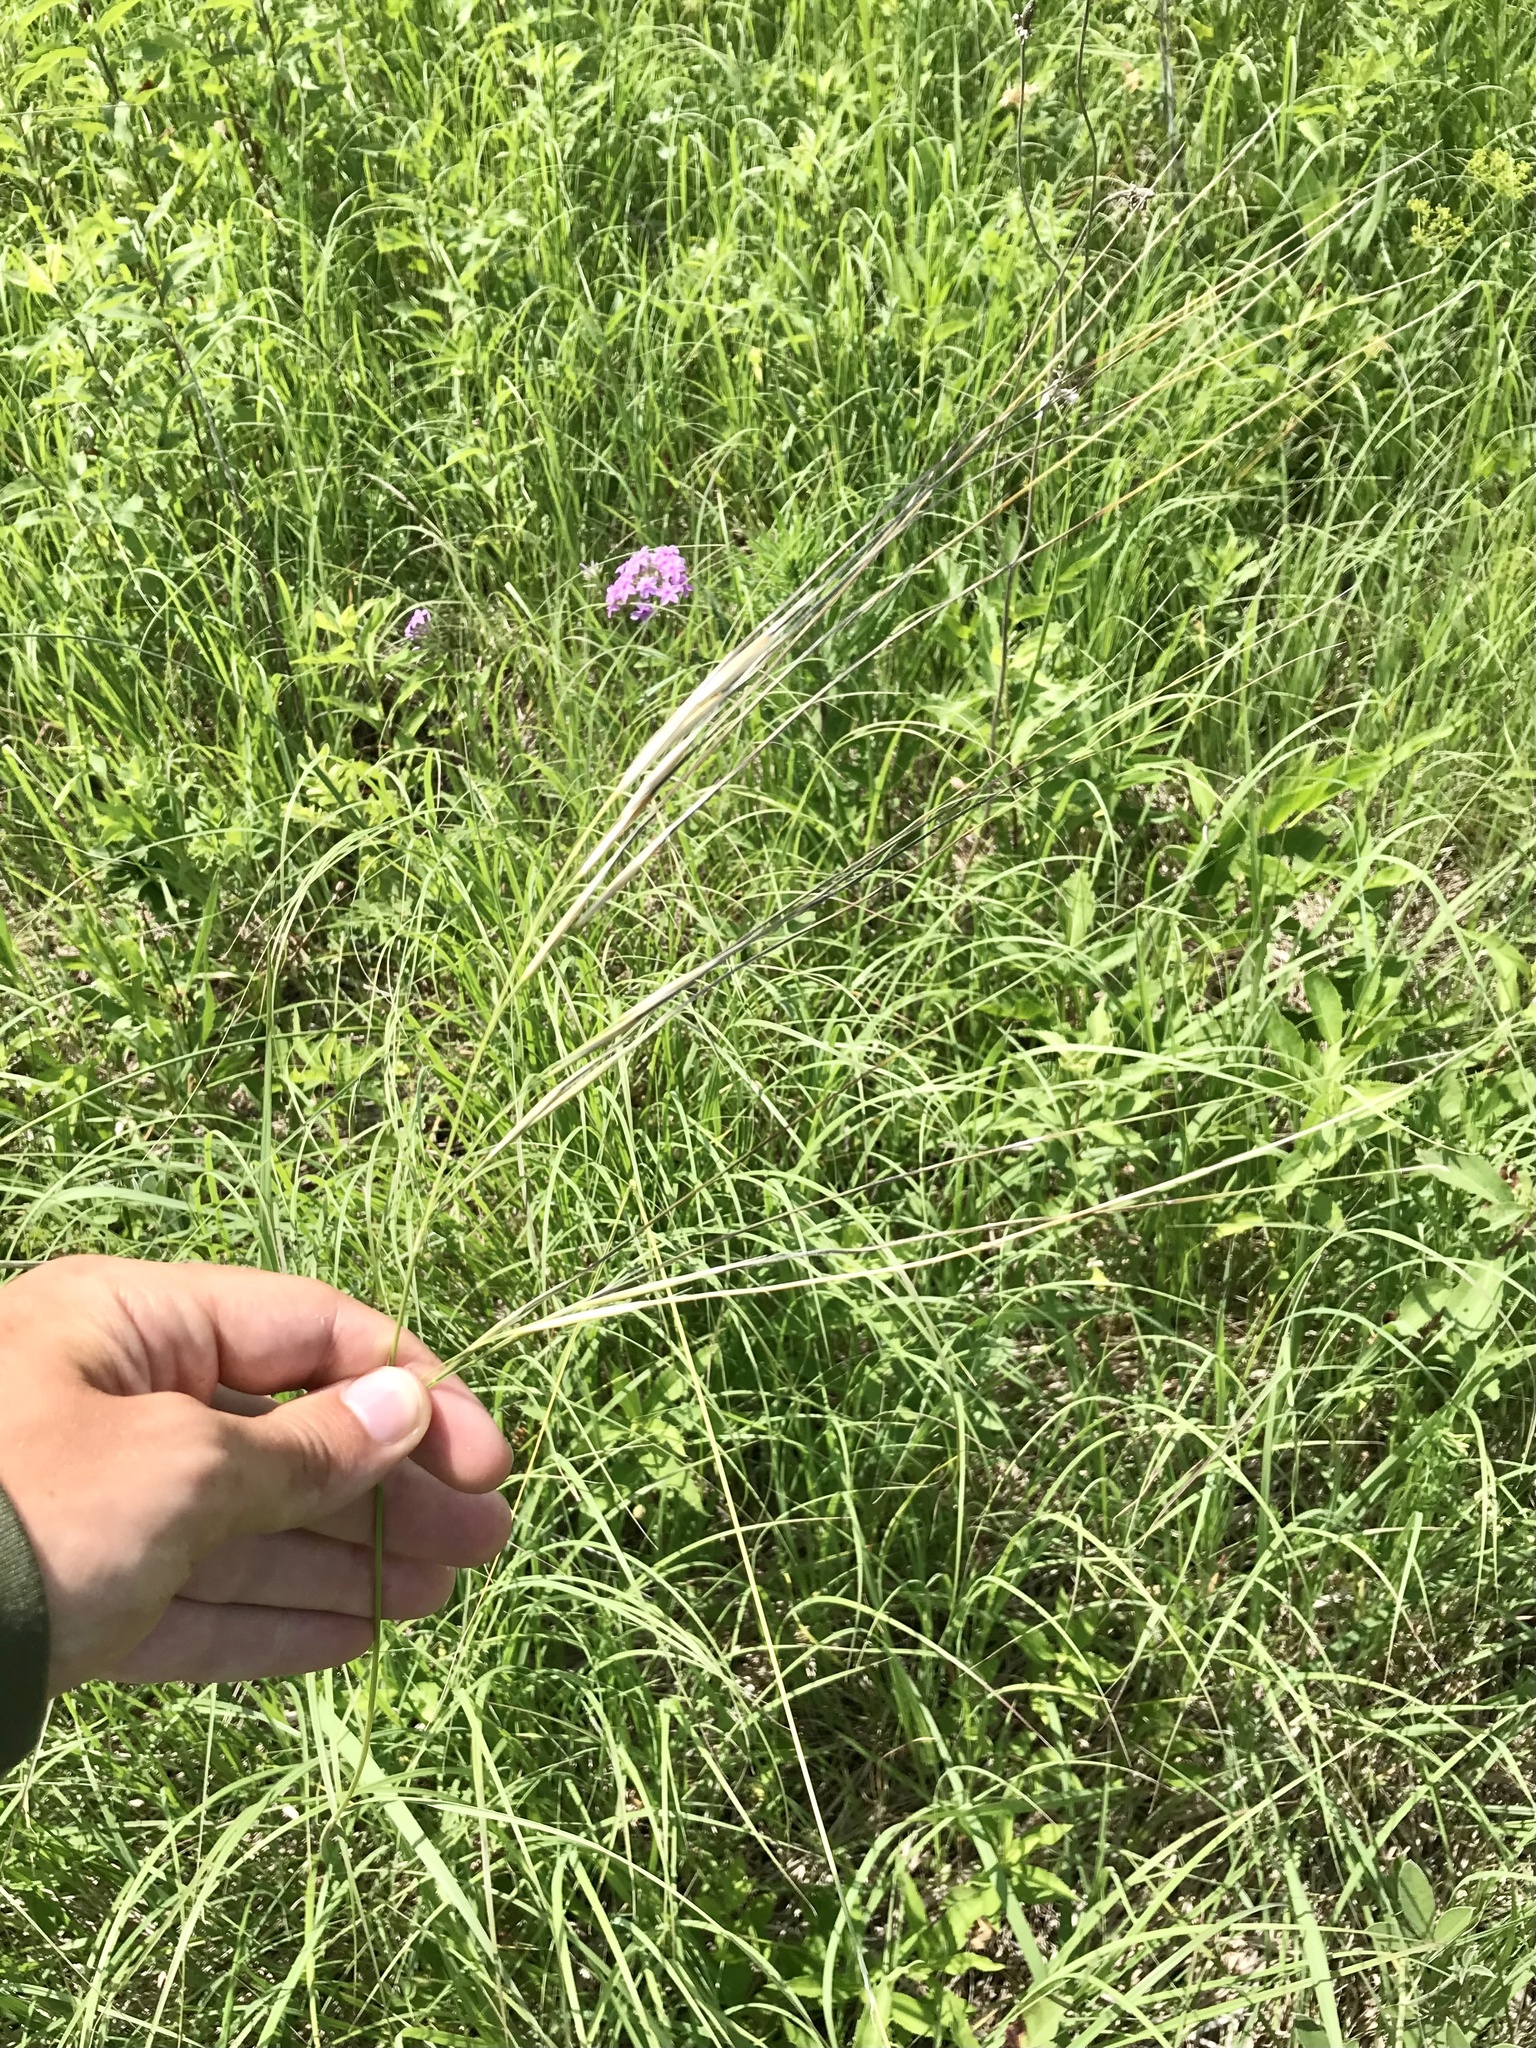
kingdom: Plantae
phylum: Tracheophyta
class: Liliopsida
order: Poales
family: Poaceae
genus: Hesperostipa
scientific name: Hesperostipa spartea
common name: Porcupine grass
